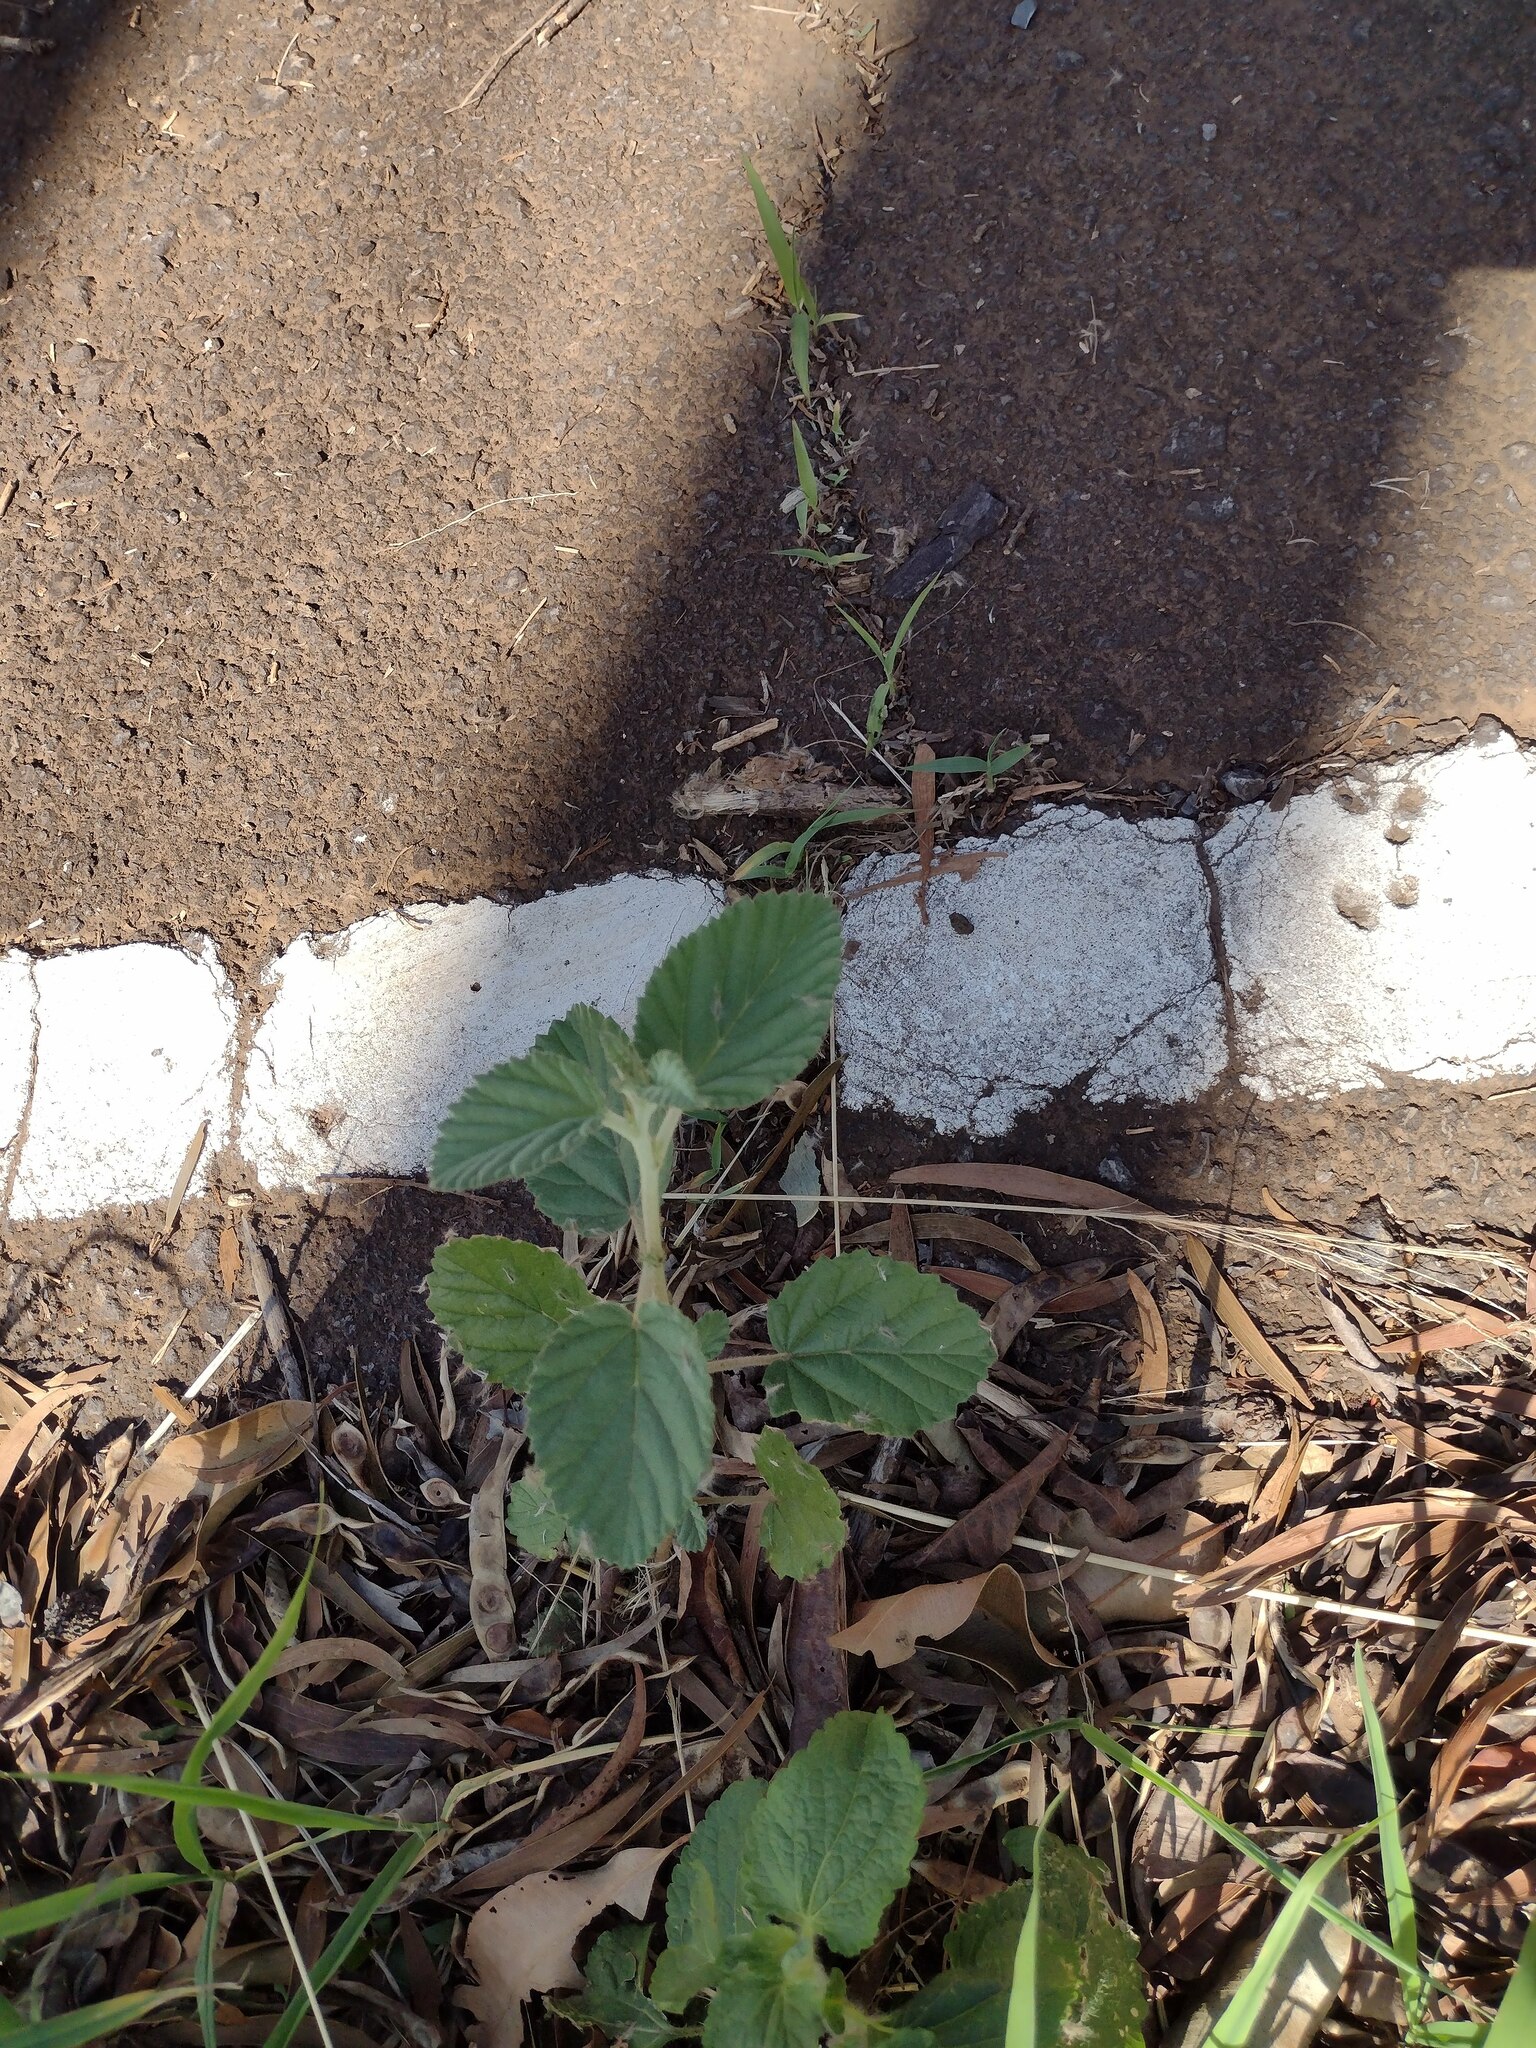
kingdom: Plantae
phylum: Tracheophyta
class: Magnoliopsida
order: Malvales
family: Malvaceae
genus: Waltheria
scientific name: Waltheria indica
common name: Leather-coat
